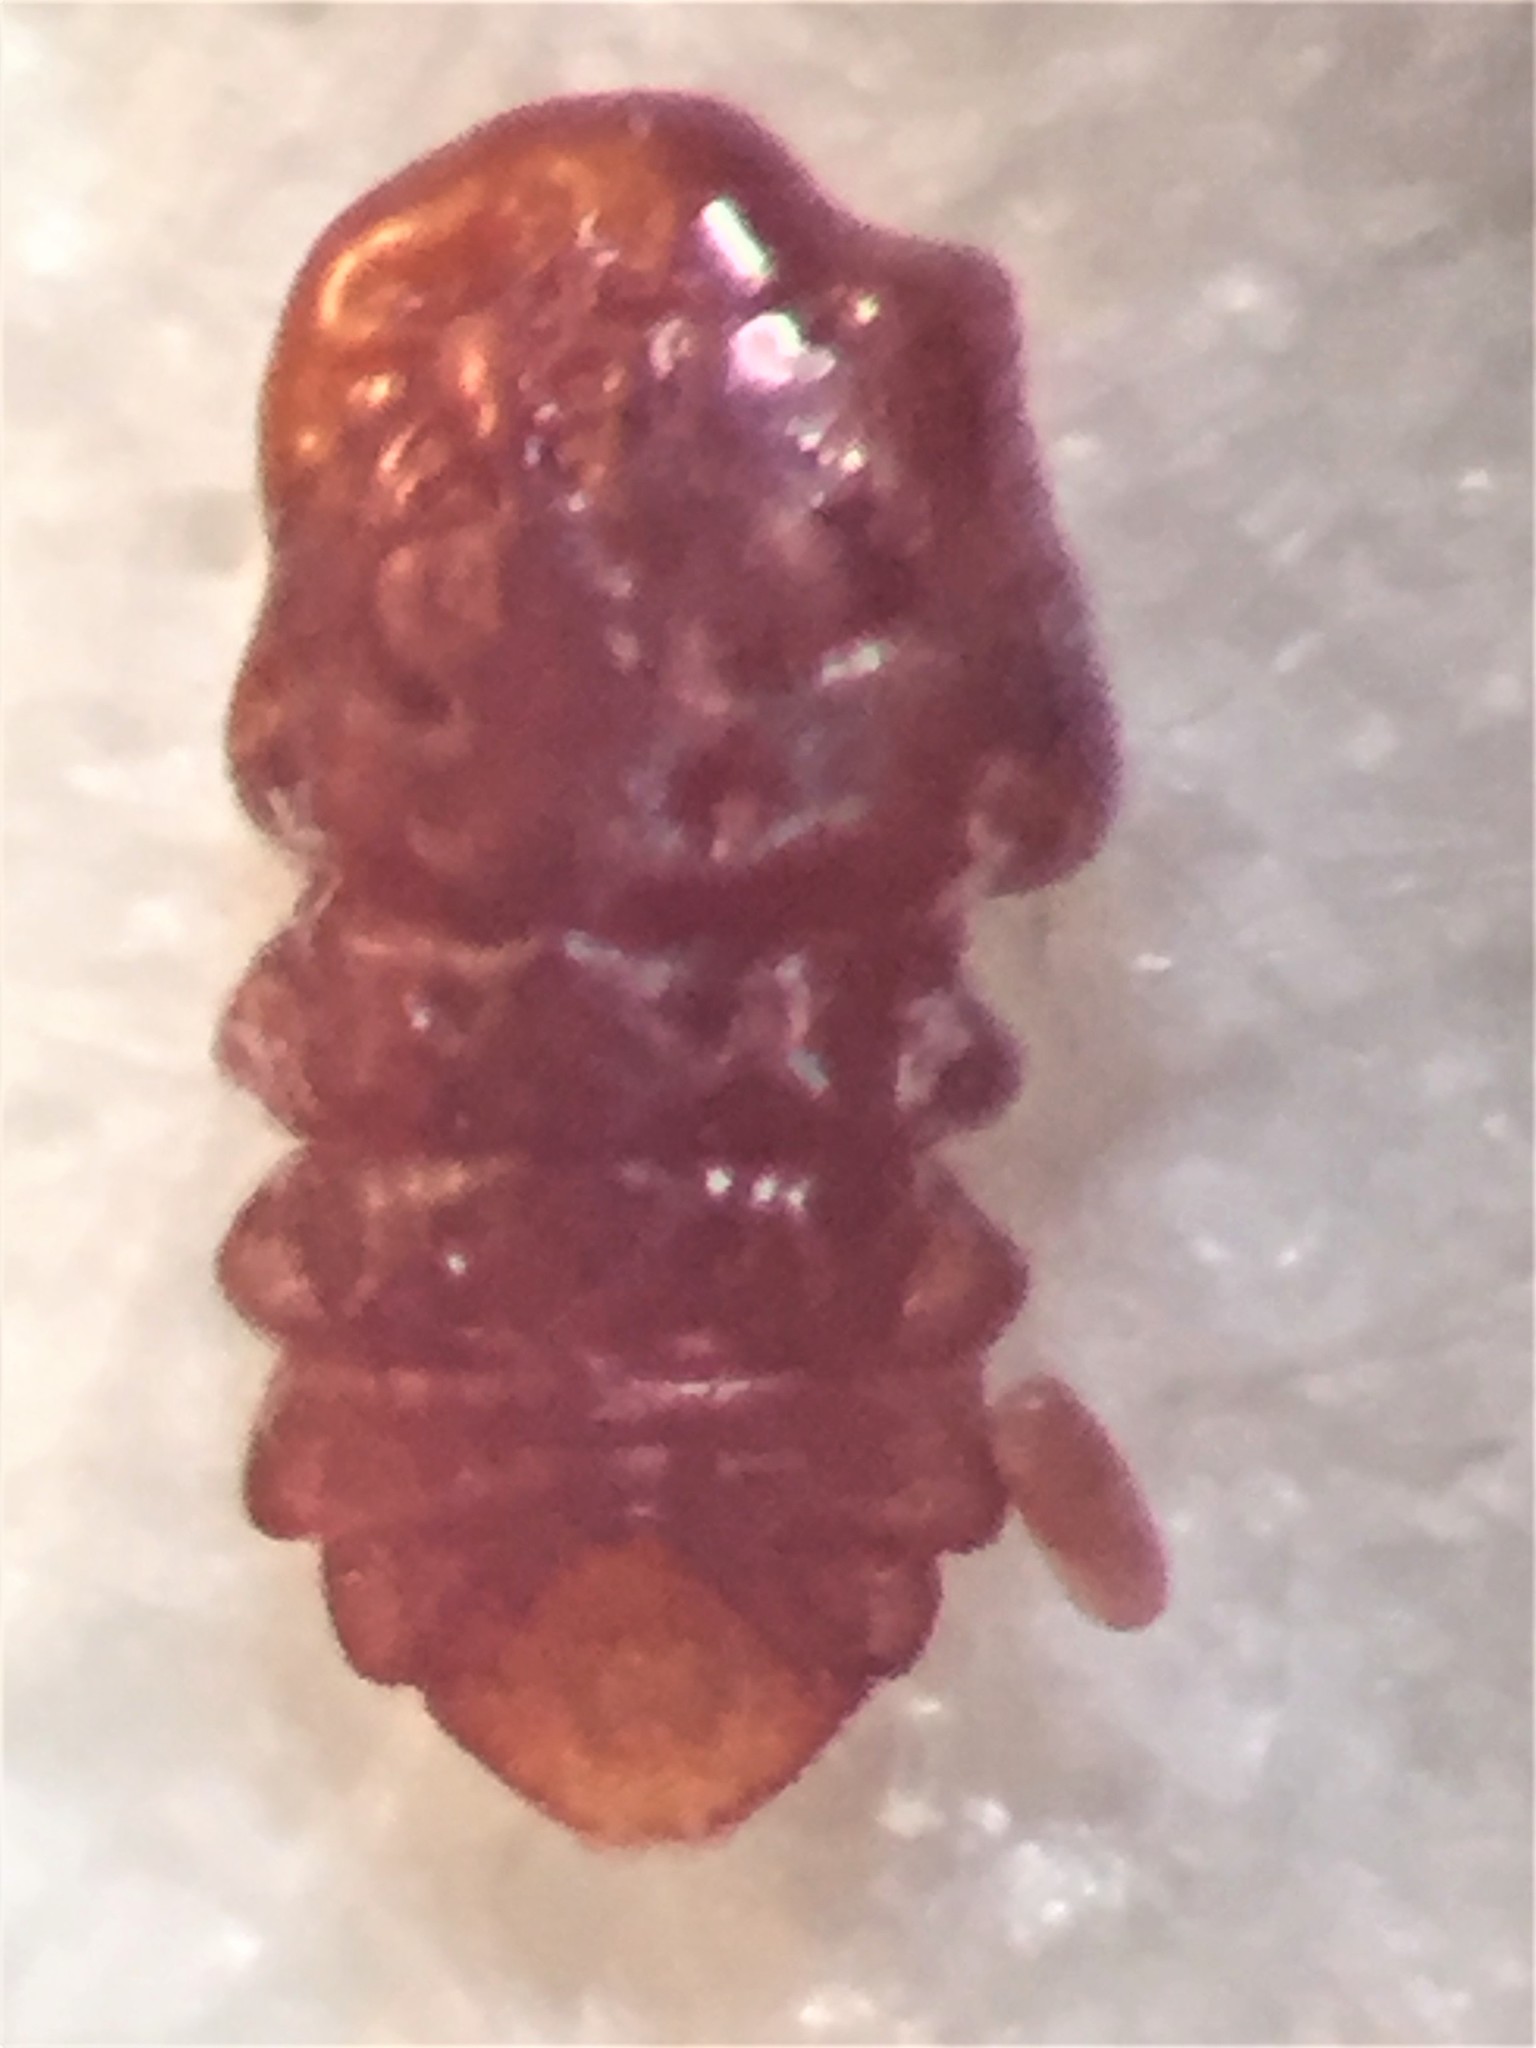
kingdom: Animalia
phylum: Arthropoda
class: Insecta
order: Hemiptera
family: Diaspididae
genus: Aulacaspis
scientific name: Aulacaspis rosarum
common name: Asiatic rose scale
